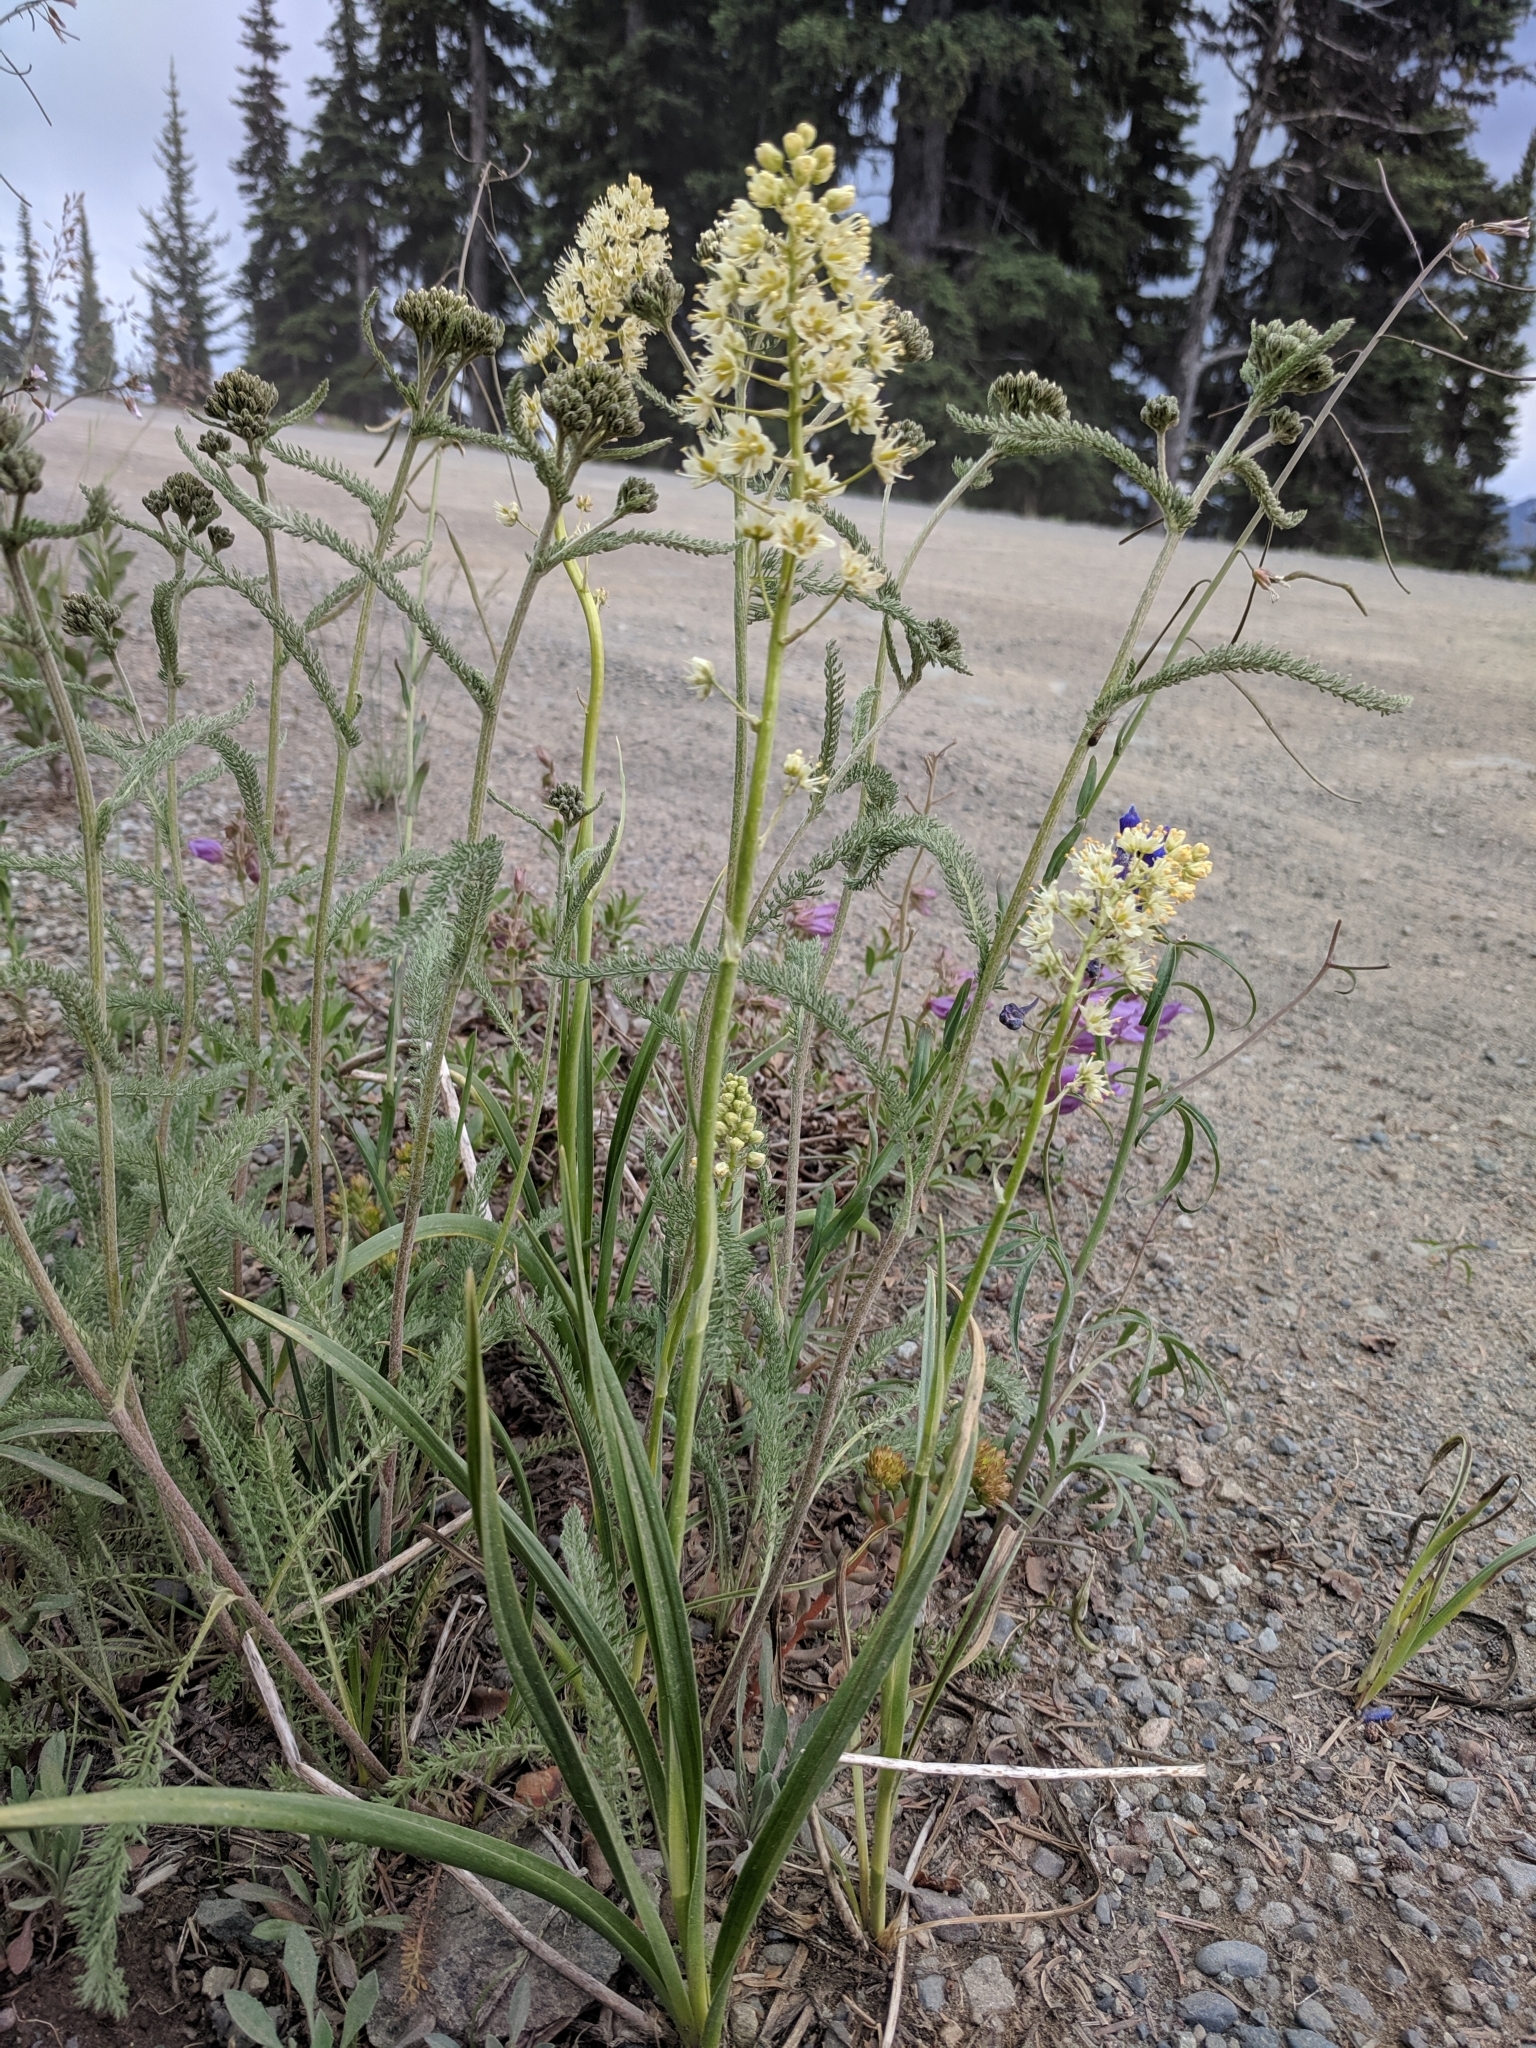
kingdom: Plantae
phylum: Tracheophyta
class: Liliopsida
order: Liliales
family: Melanthiaceae
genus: Toxicoscordion
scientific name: Toxicoscordion venenosum
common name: Meadow death camas
